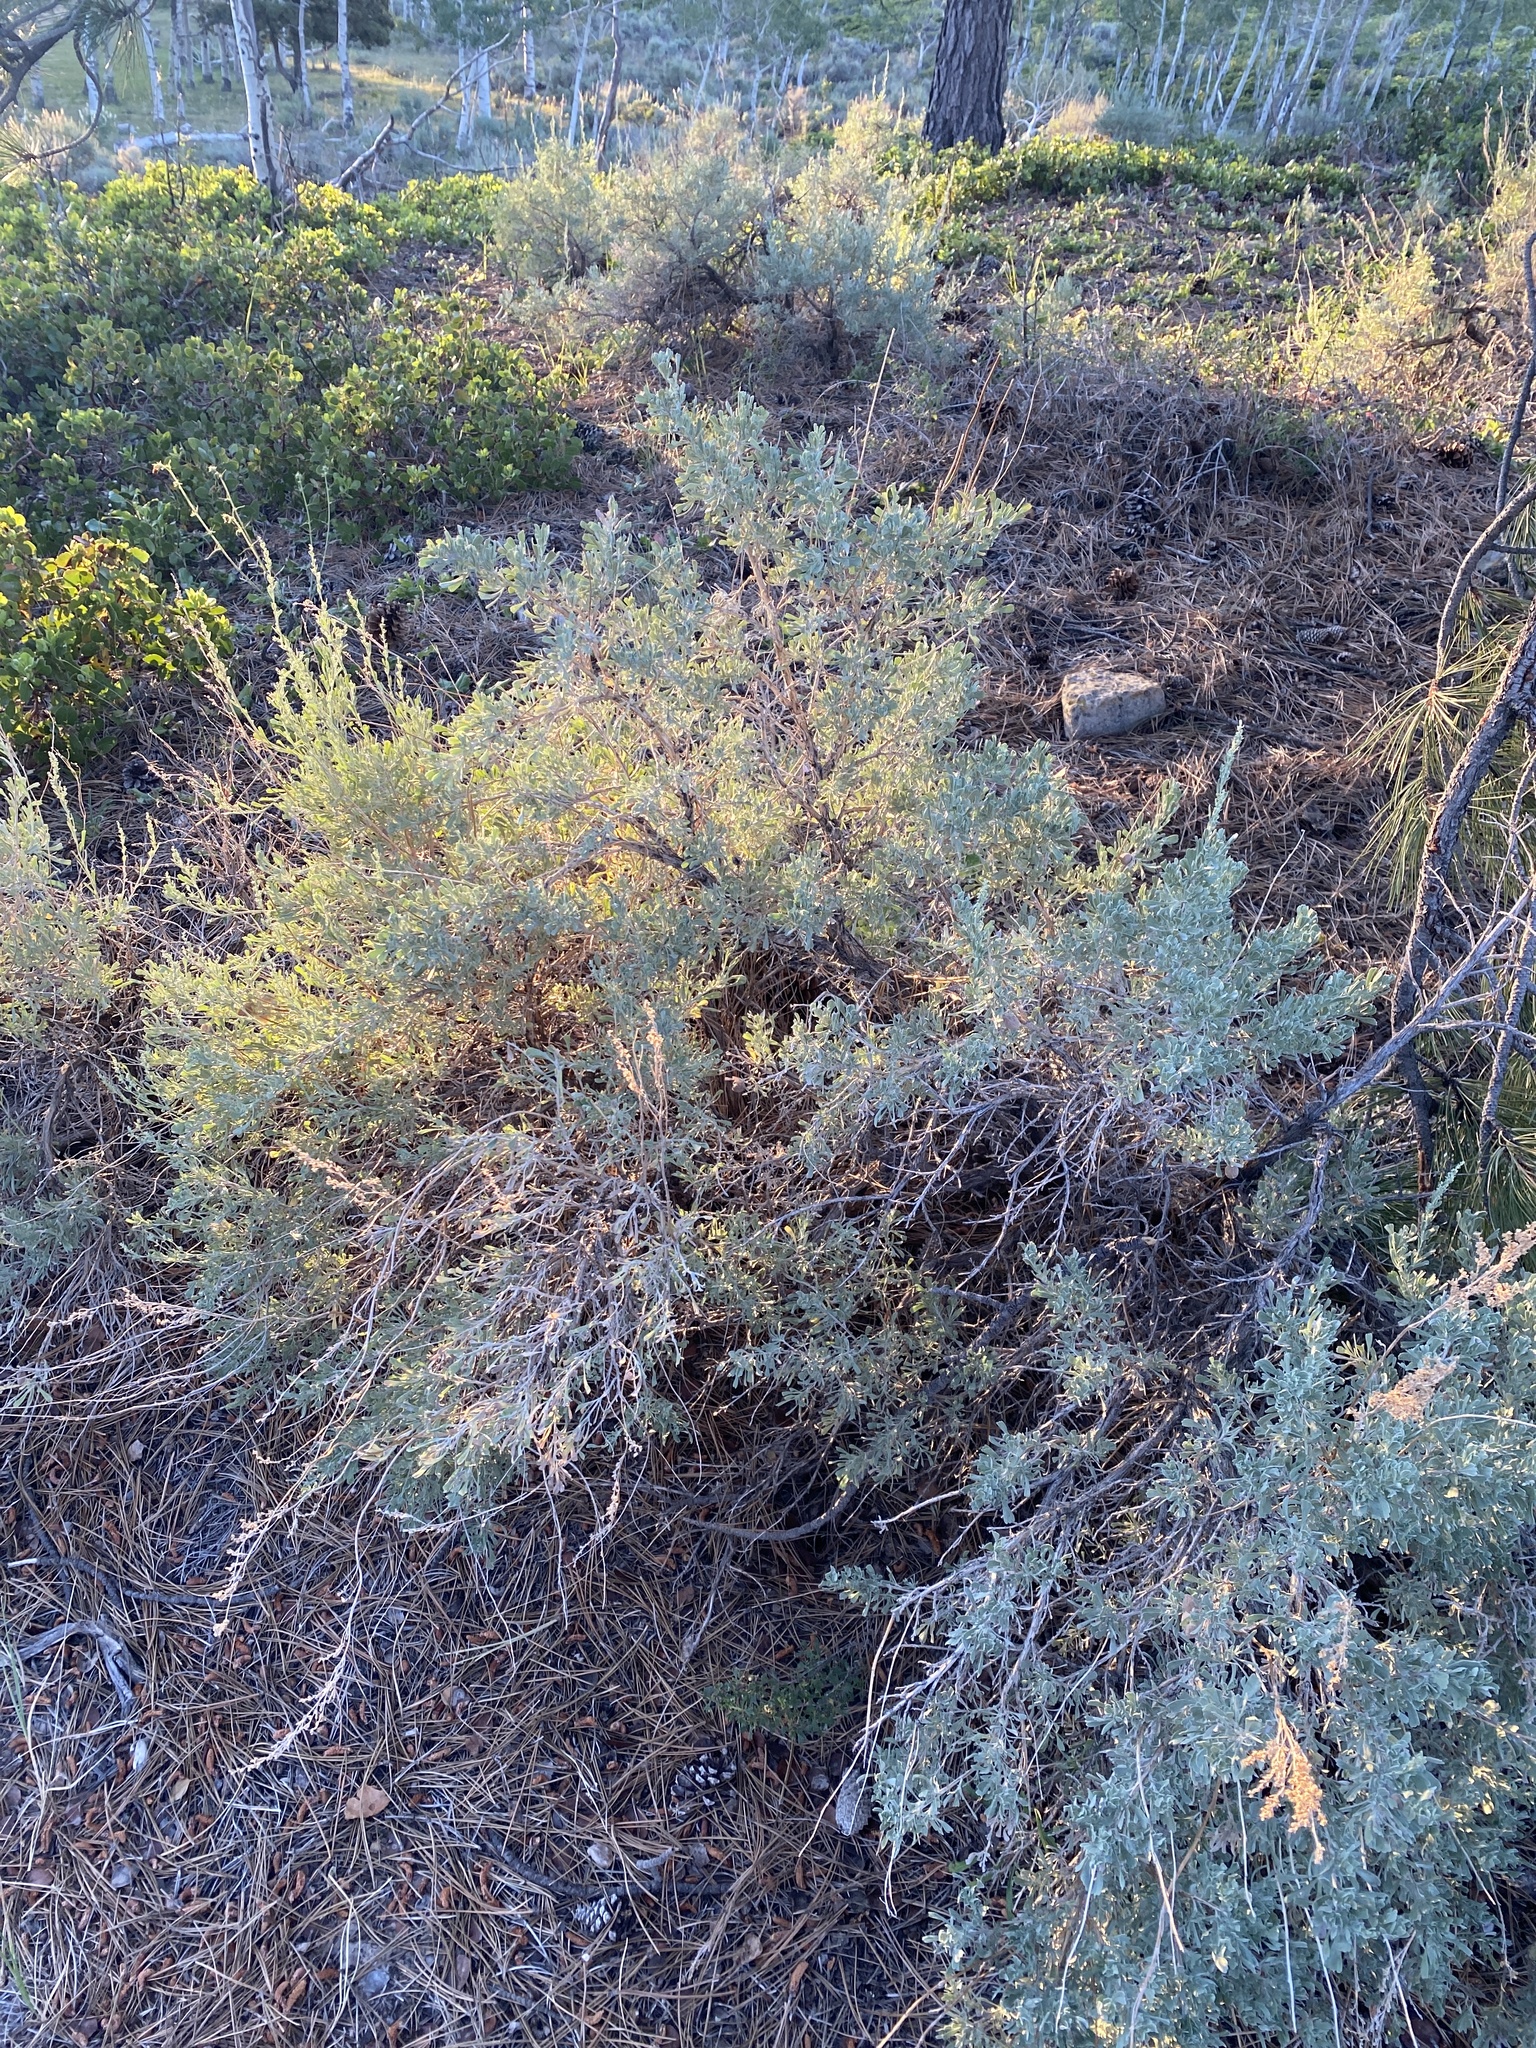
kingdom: Plantae
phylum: Tracheophyta
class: Magnoliopsida
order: Asterales
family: Asteraceae
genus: Artemisia
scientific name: Artemisia tridentata
